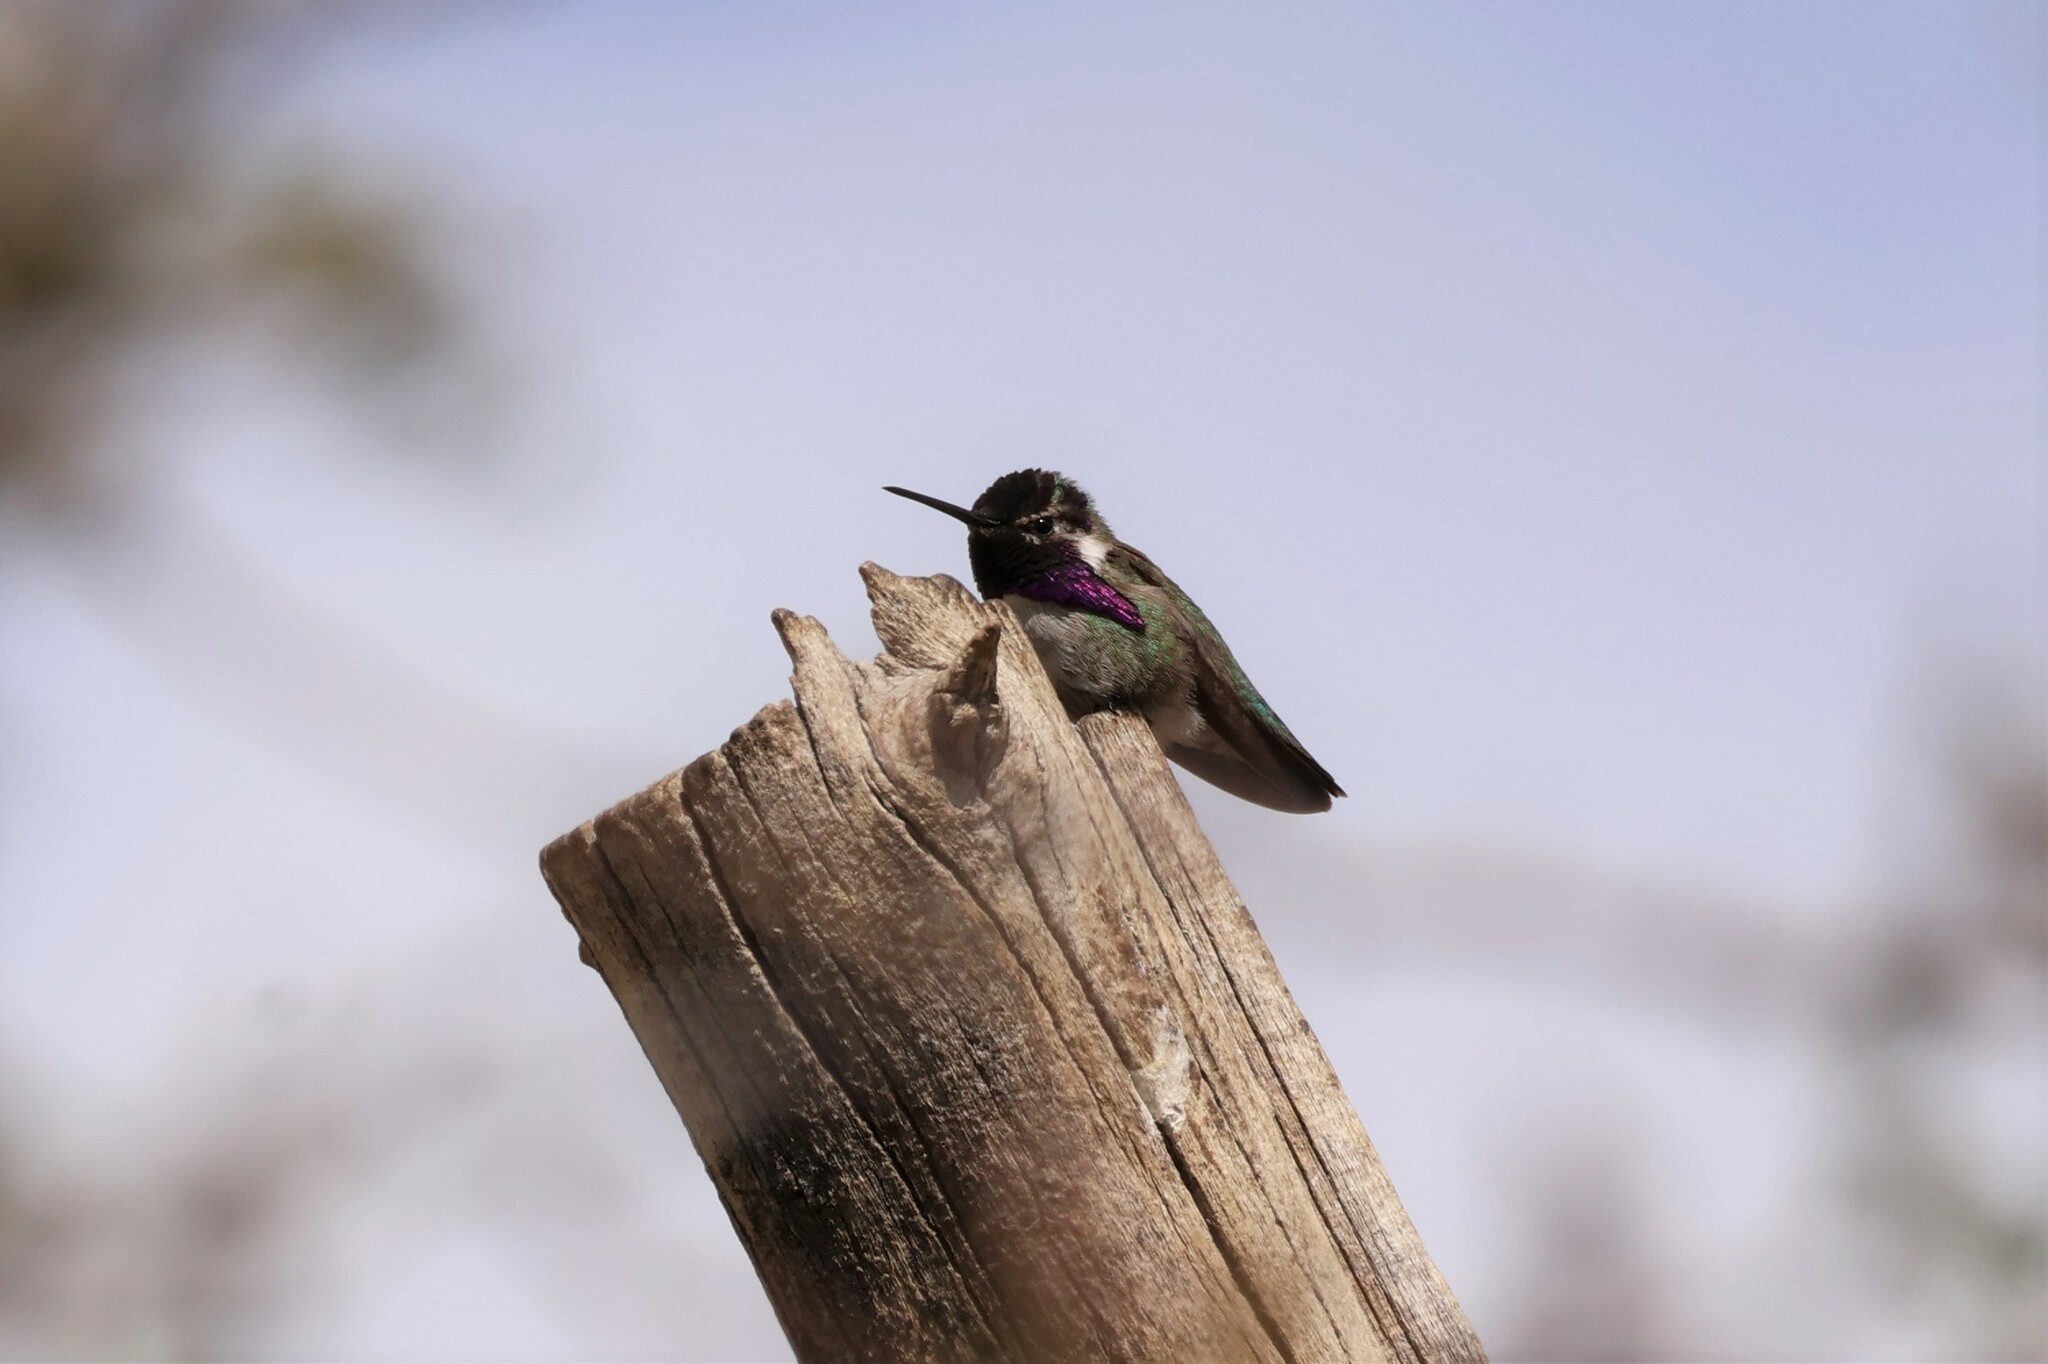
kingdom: Animalia
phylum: Chordata
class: Aves
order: Apodiformes
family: Trochilidae
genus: Calypte
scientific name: Calypte costae
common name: Costa's hummingbird
